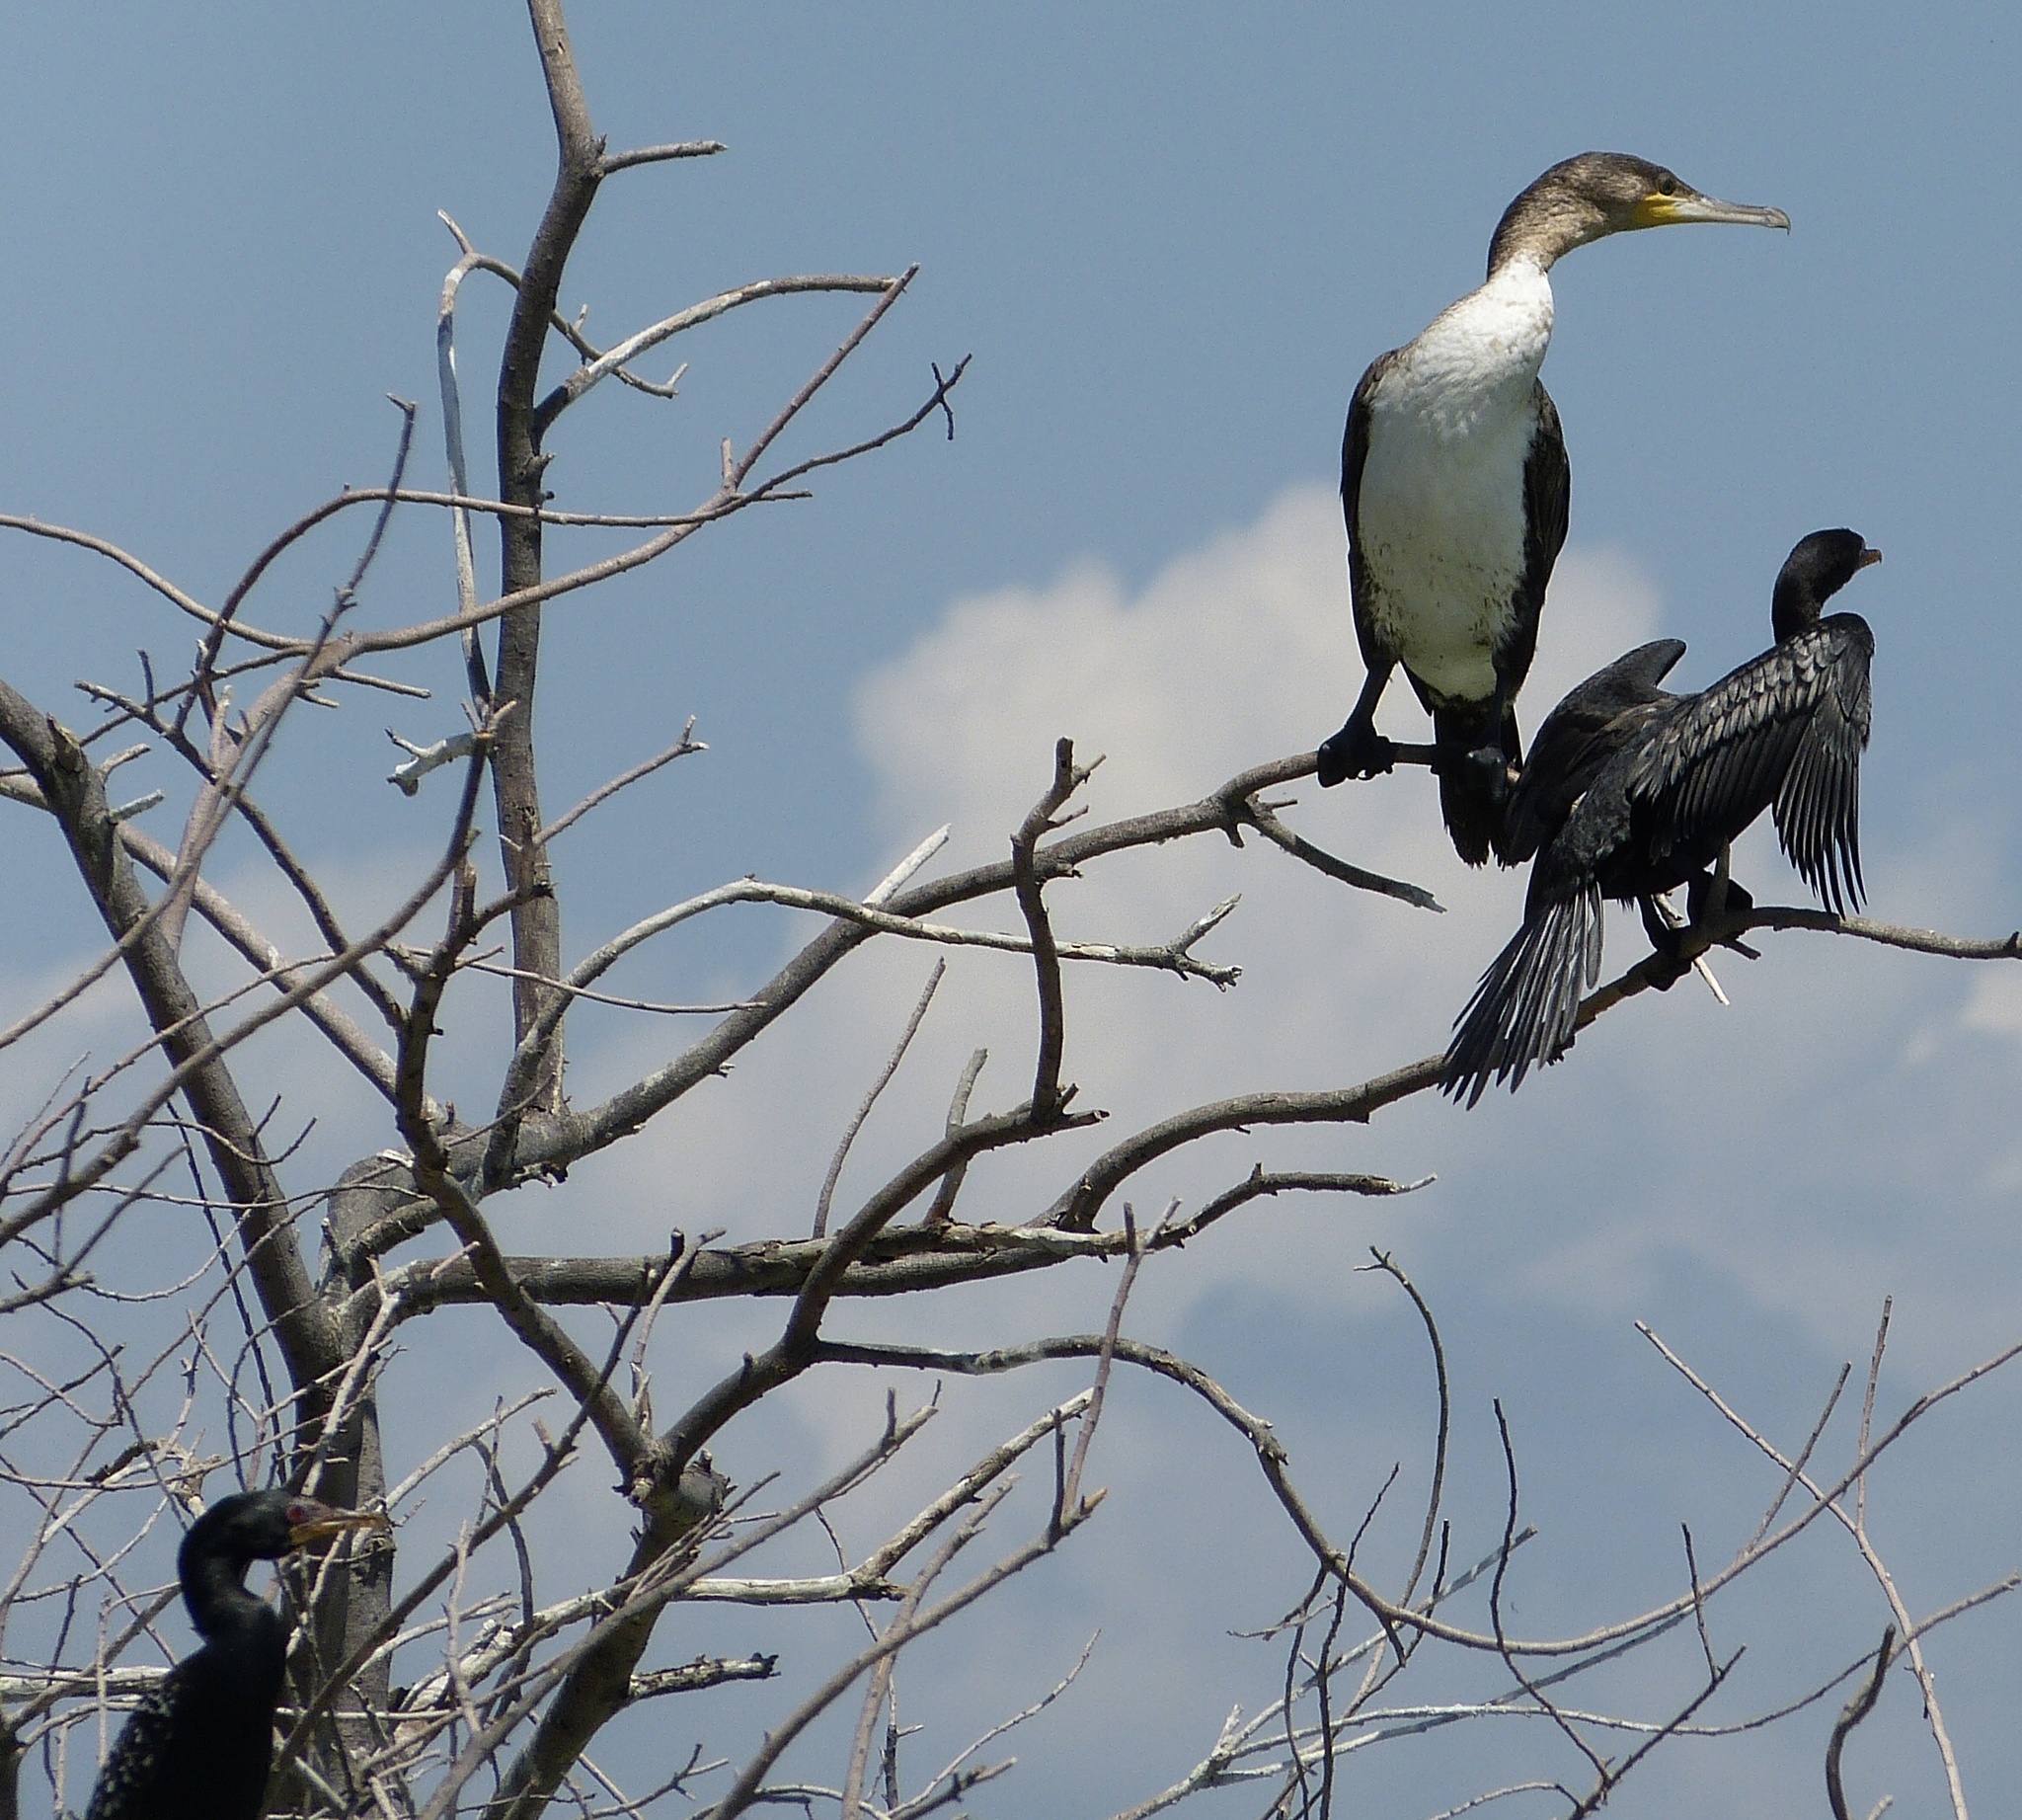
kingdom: Animalia
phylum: Chordata
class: Aves
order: Suliformes
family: Phalacrocoracidae
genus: Microcarbo
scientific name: Microcarbo africanus
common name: Long-tailed cormorant
